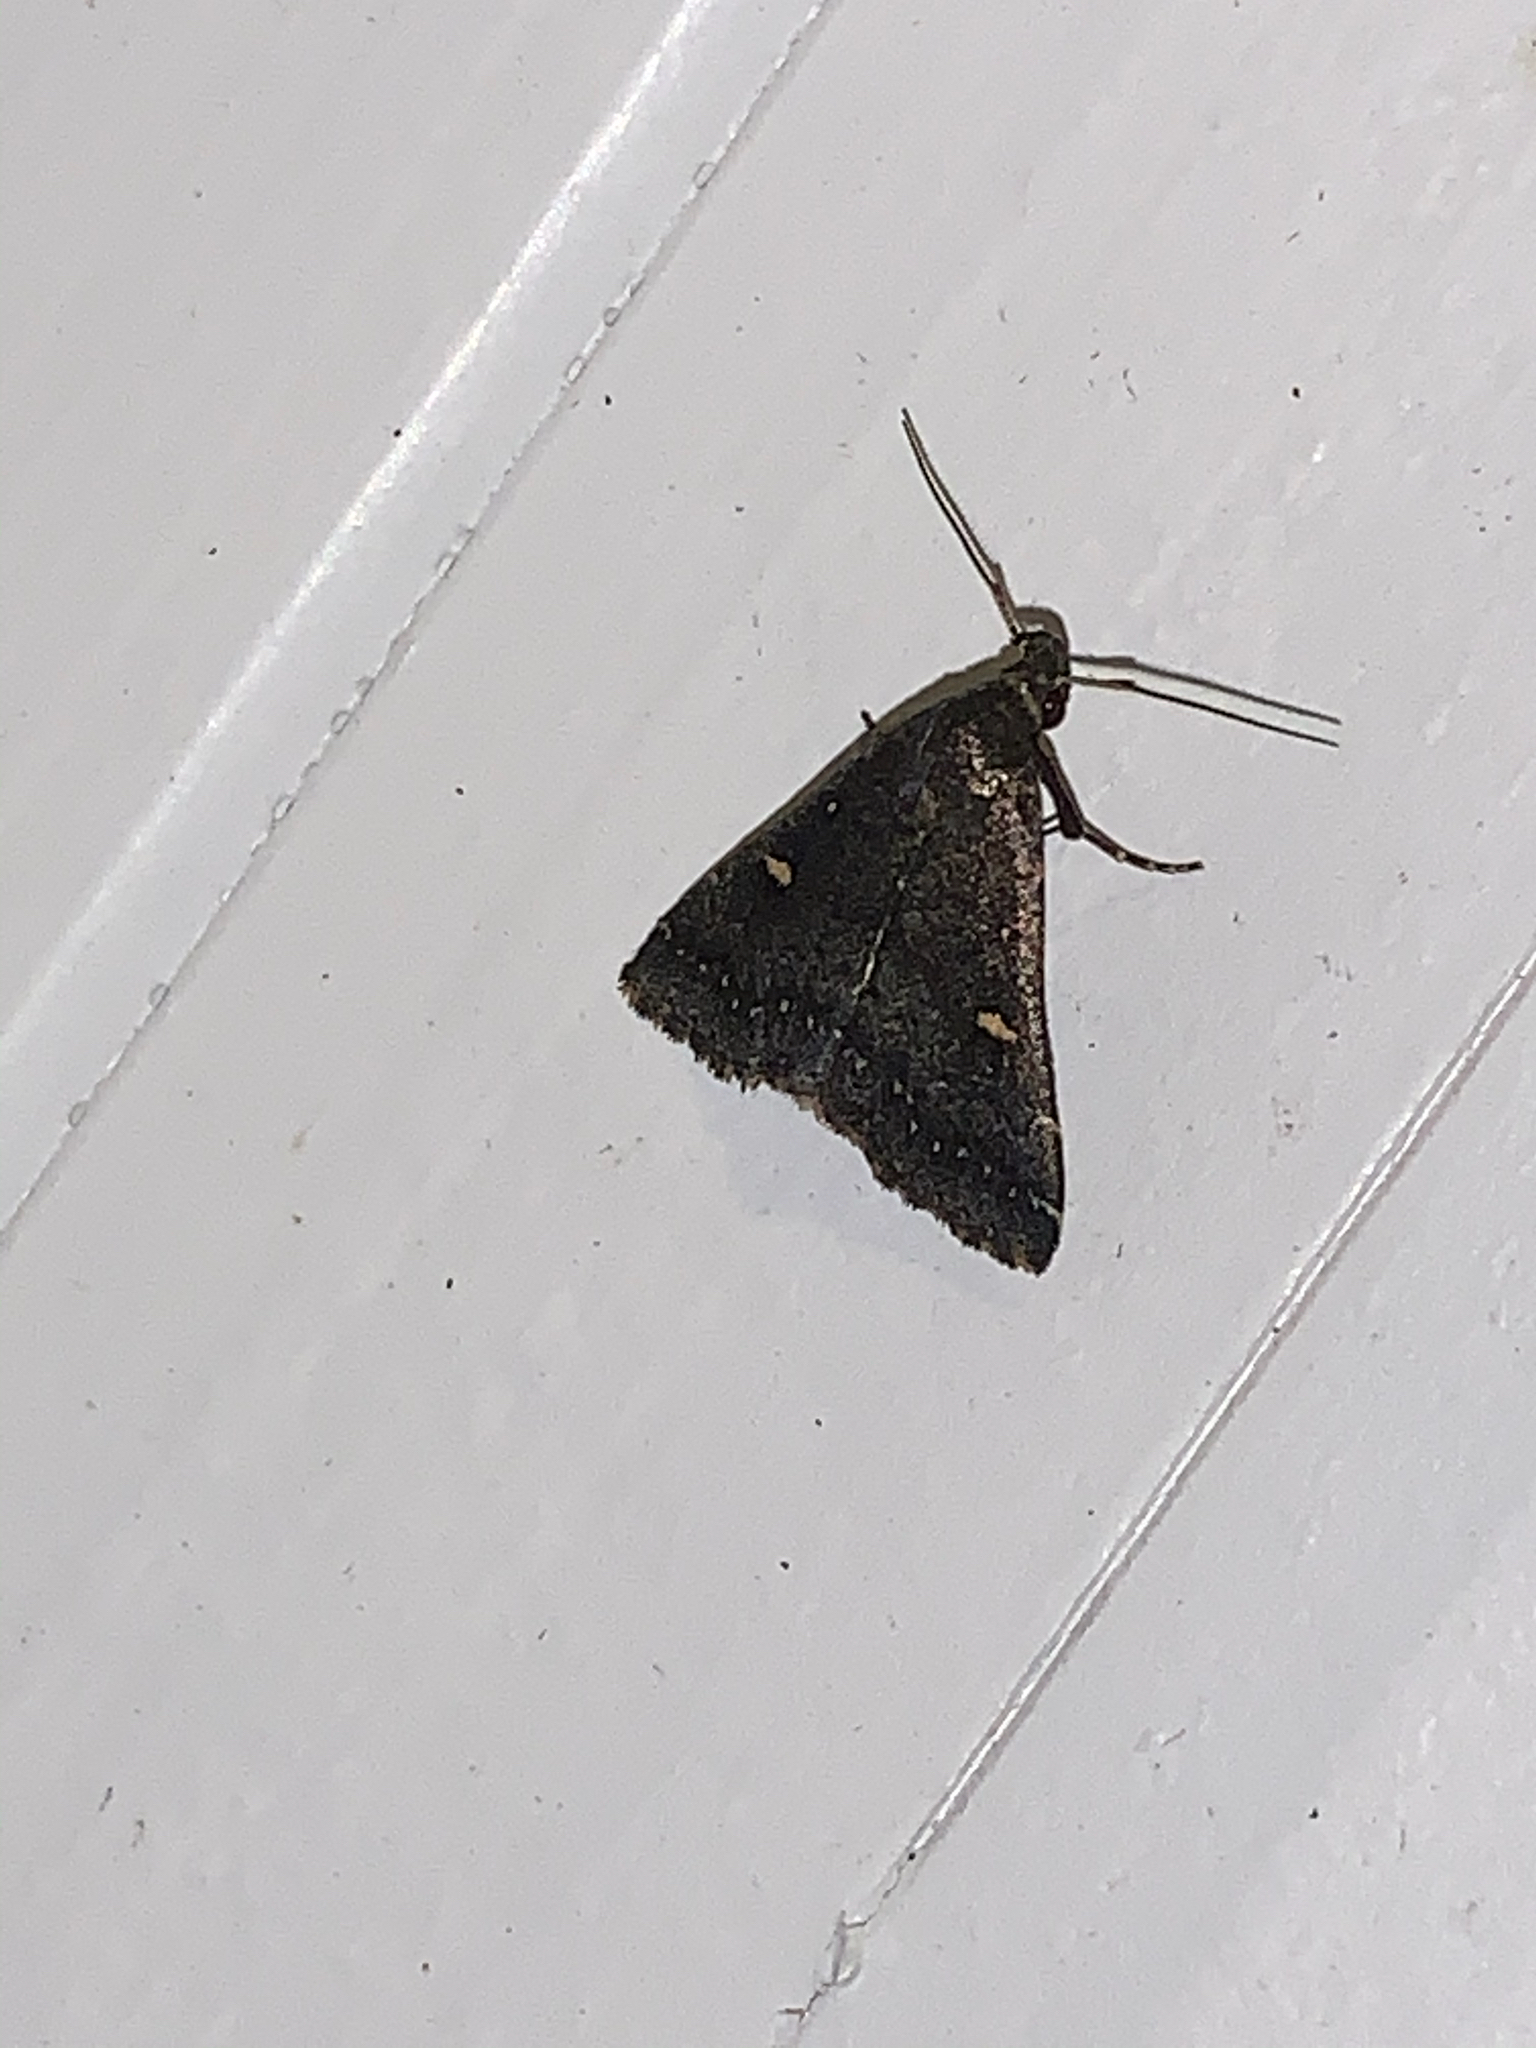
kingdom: Animalia
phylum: Arthropoda
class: Insecta
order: Lepidoptera
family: Erebidae
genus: Tetanolita
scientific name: Tetanolita mynesalis
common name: Smoky tetanolita moth
